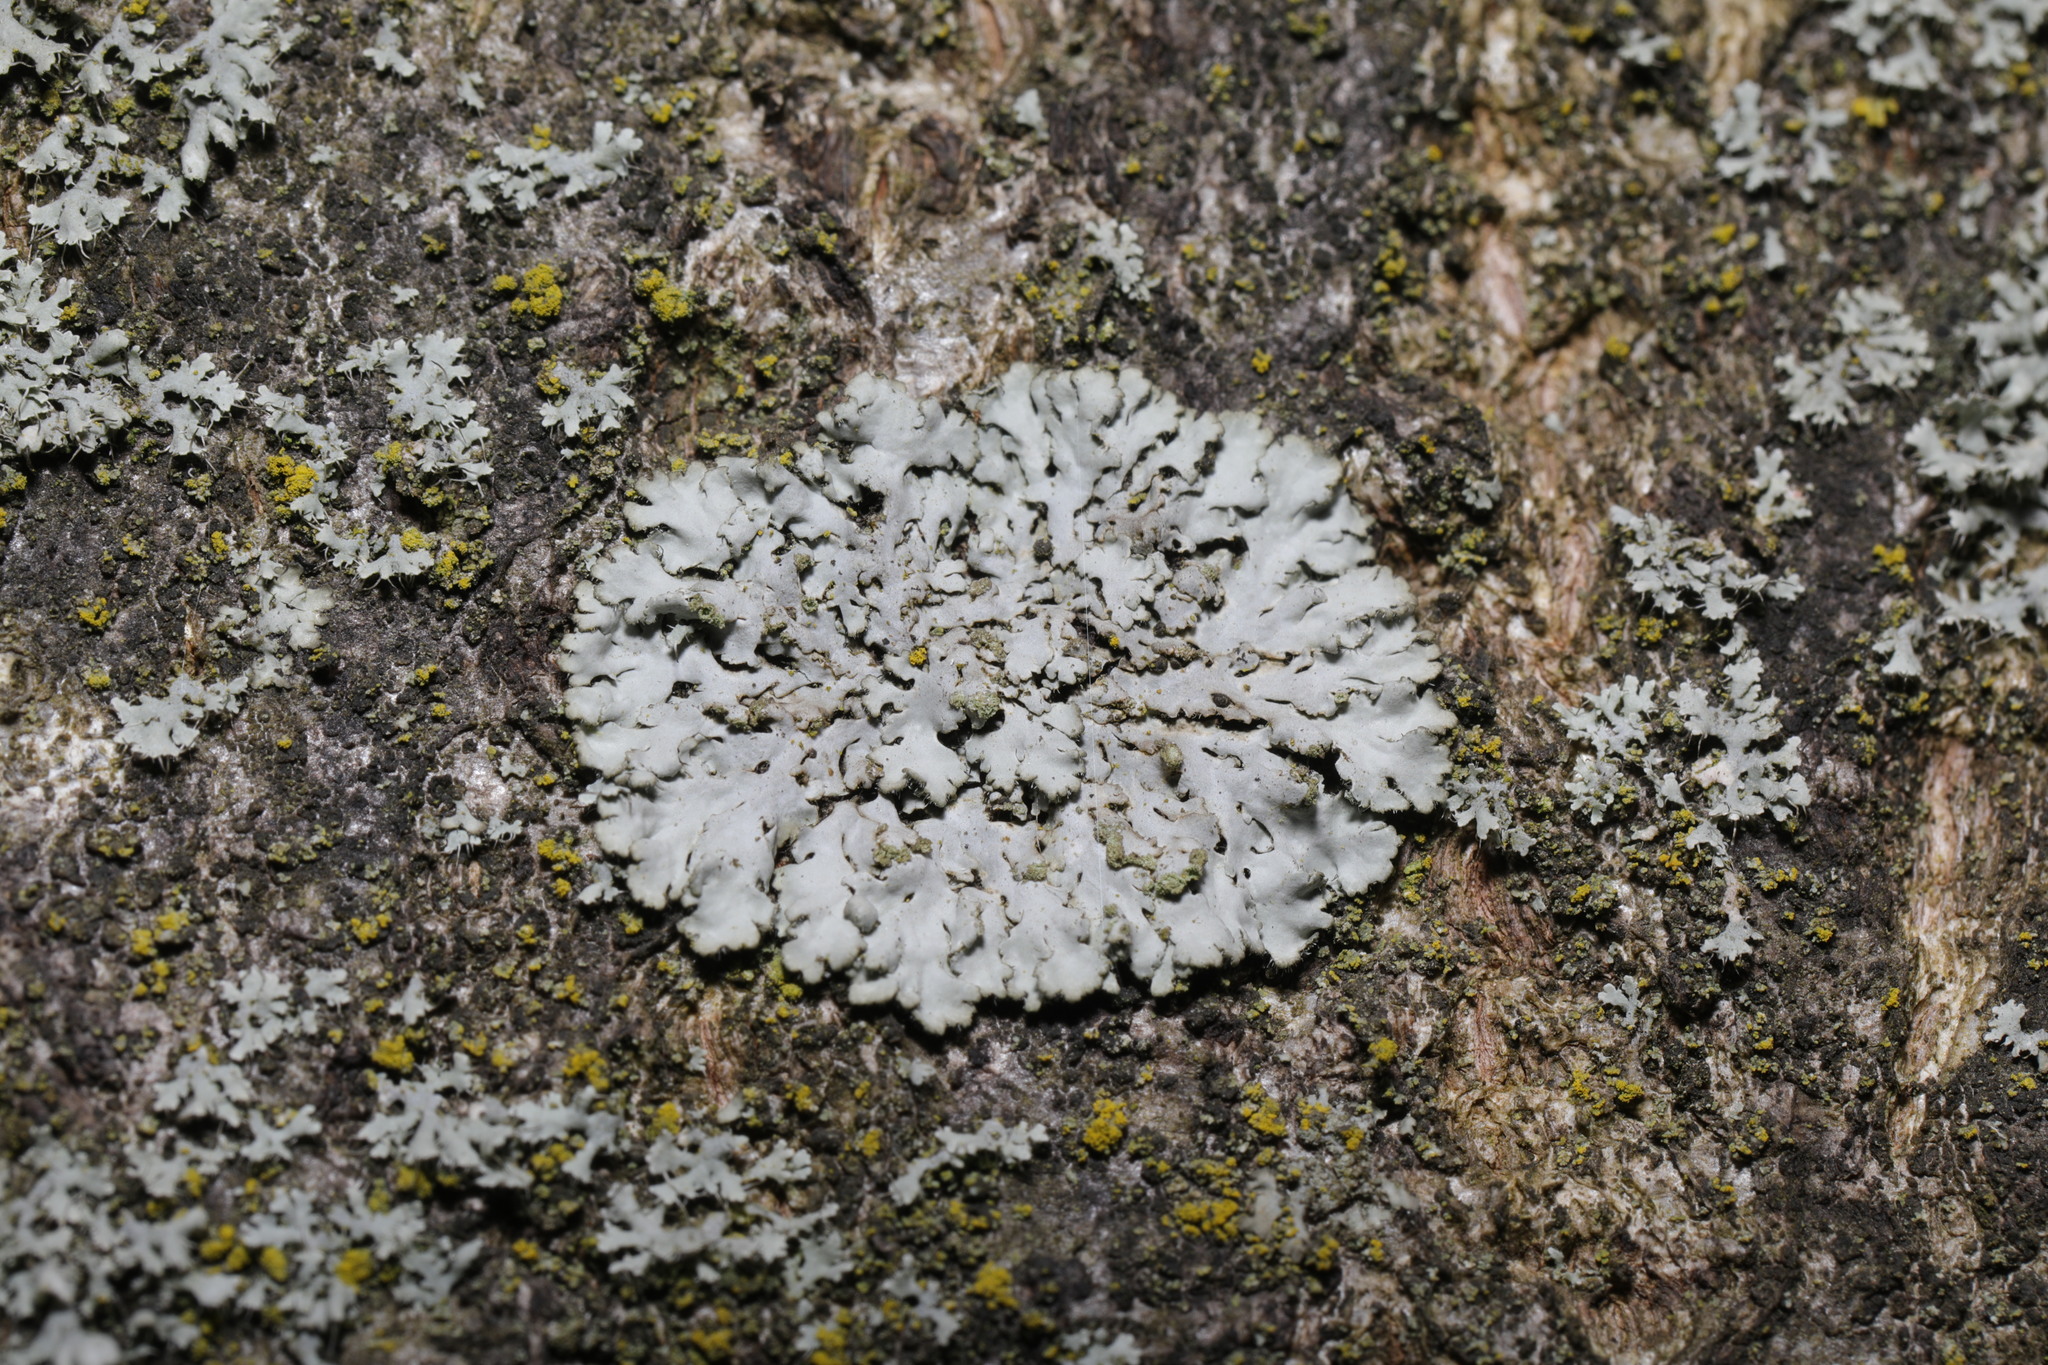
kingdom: Fungi
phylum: Ascomycota
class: Lecanoromycetes
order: Caliciales
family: Physciaceae
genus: Phaeophyscia
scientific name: Phaeophyscia orbicularis
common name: Mealy shadow lichen
